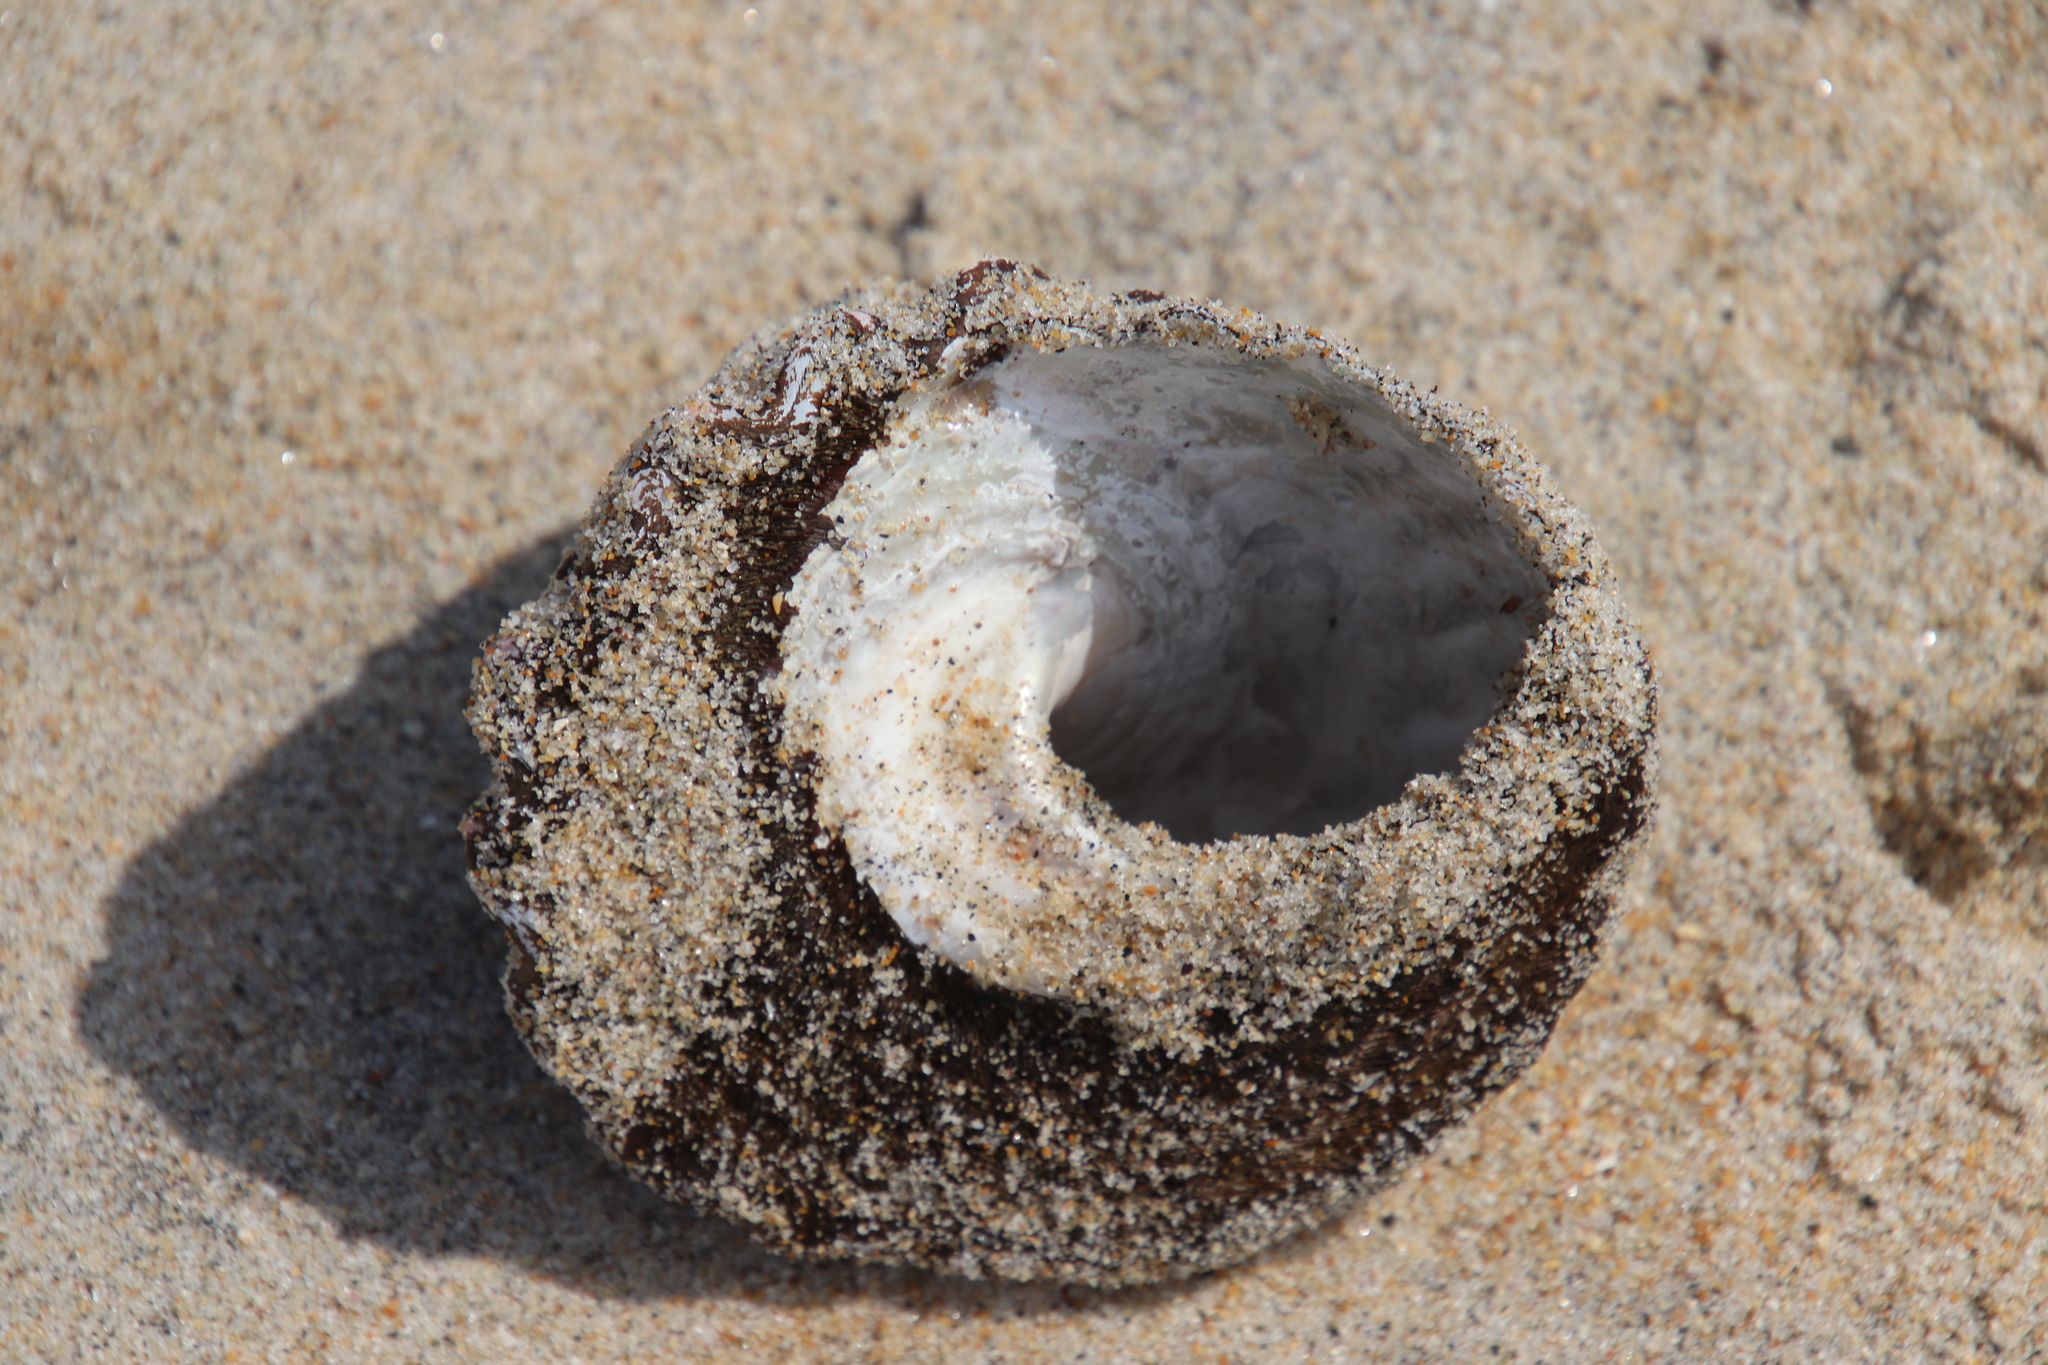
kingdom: Animalia
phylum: Mollusca
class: Gastropoda
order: Trochida
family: Turbinidae
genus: Megastraea
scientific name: Megastraea undosa
